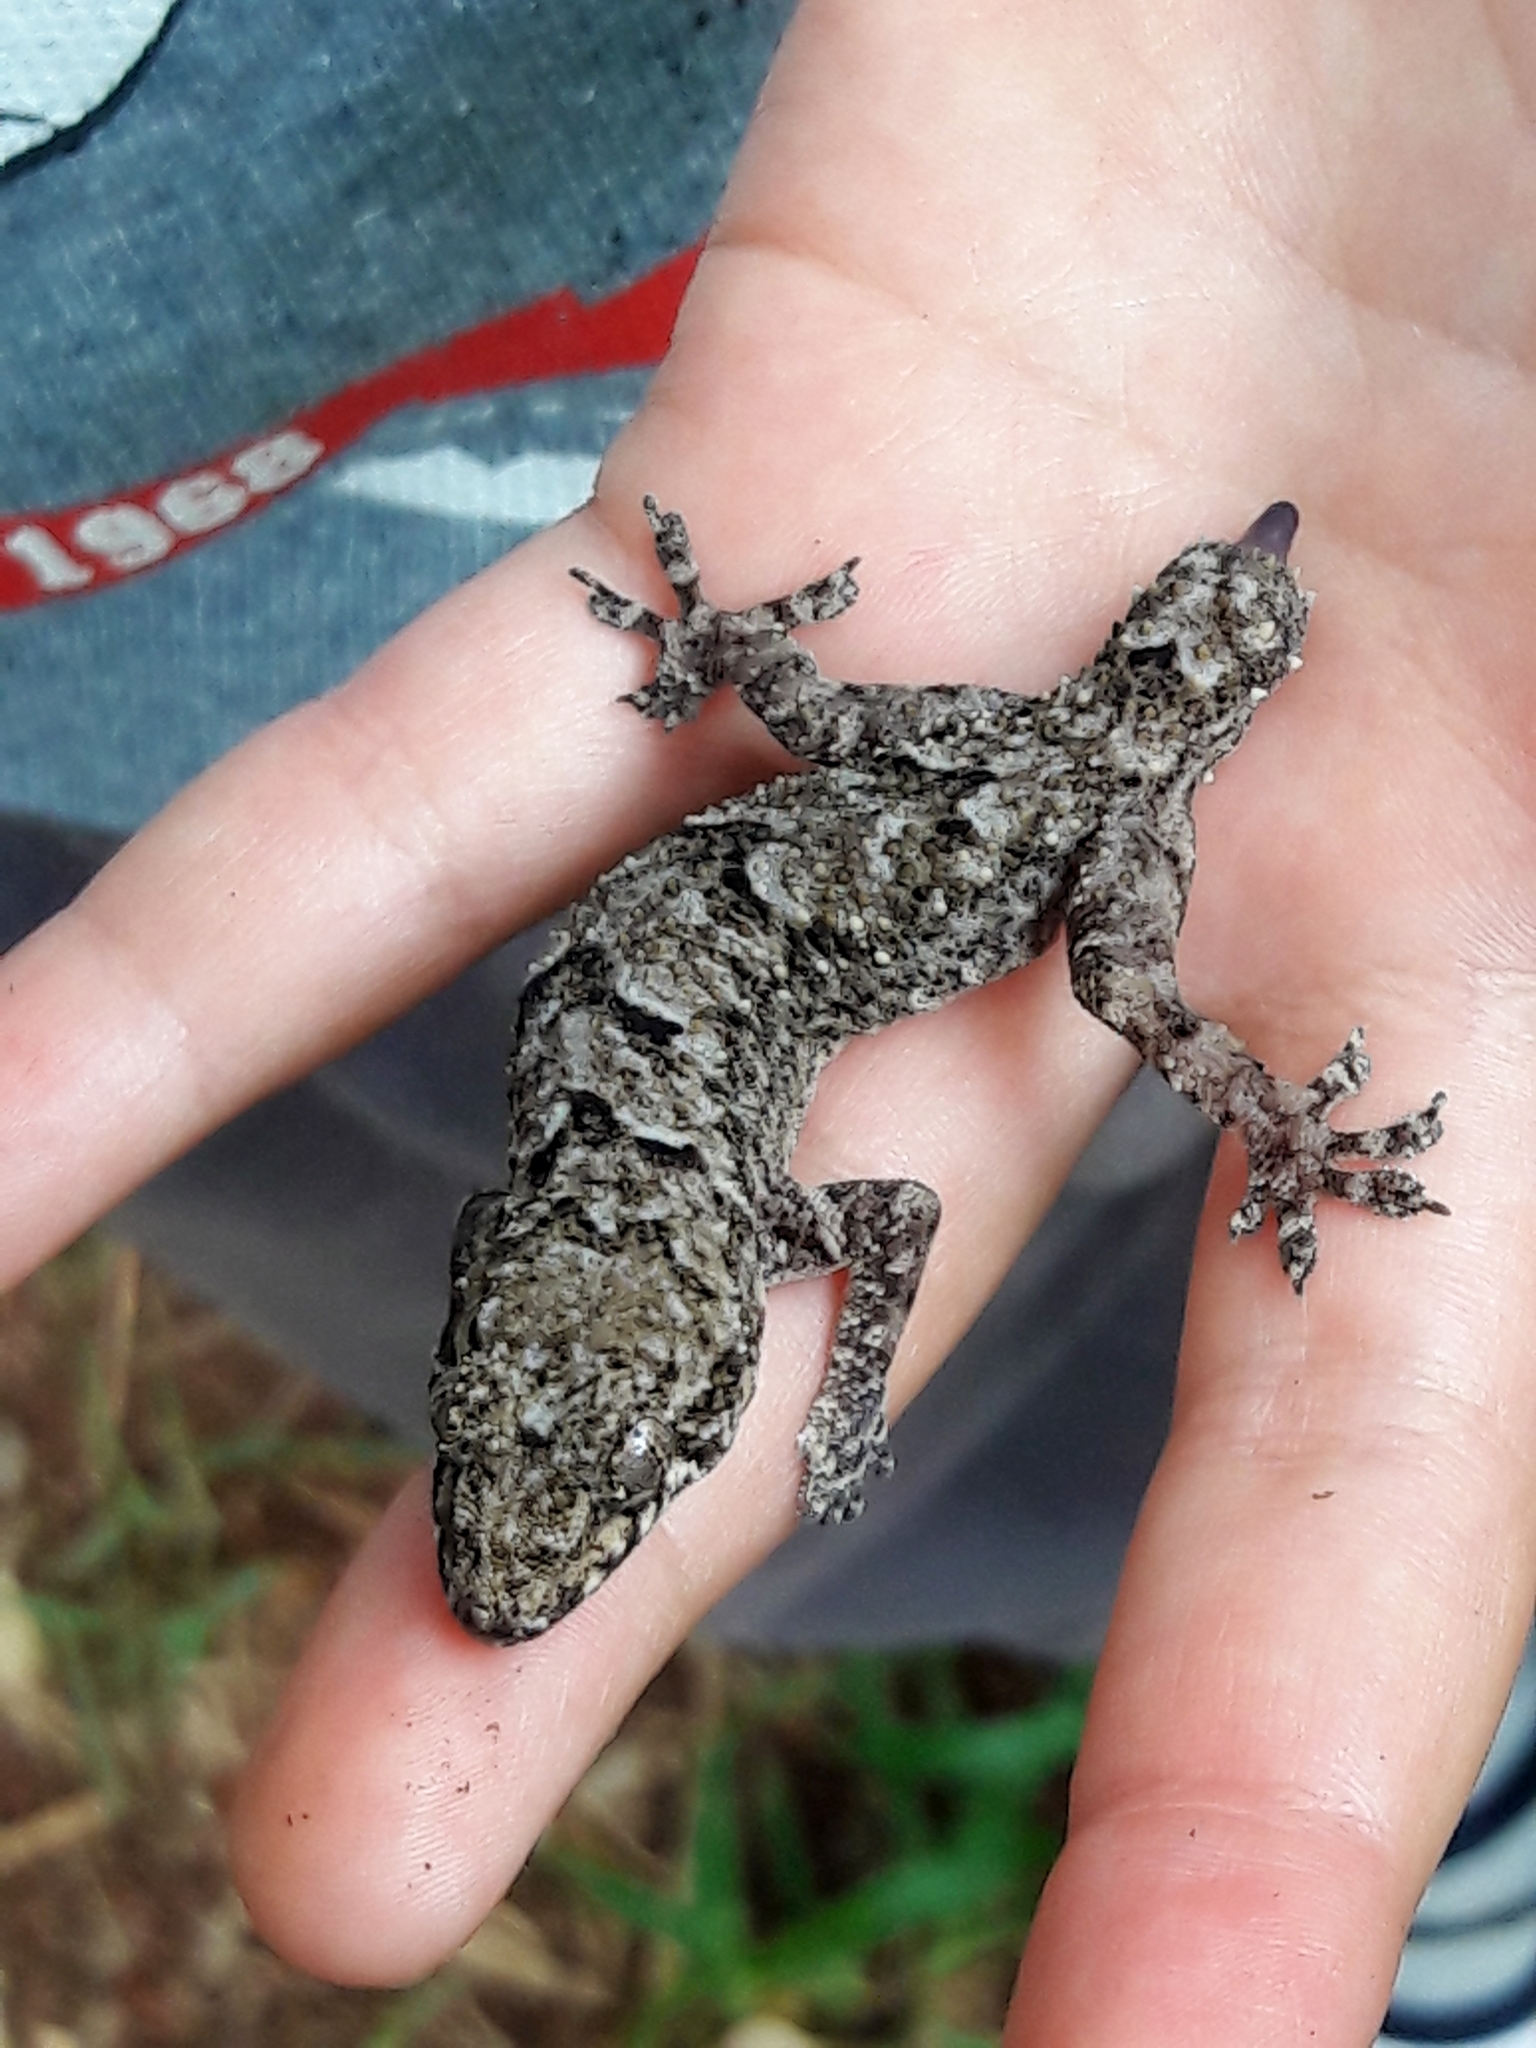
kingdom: Animalia
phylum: Chordata
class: Squamata
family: Gekkonidae
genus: Hemidactylus
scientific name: Hemidactylus mabouia
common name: House gecko
